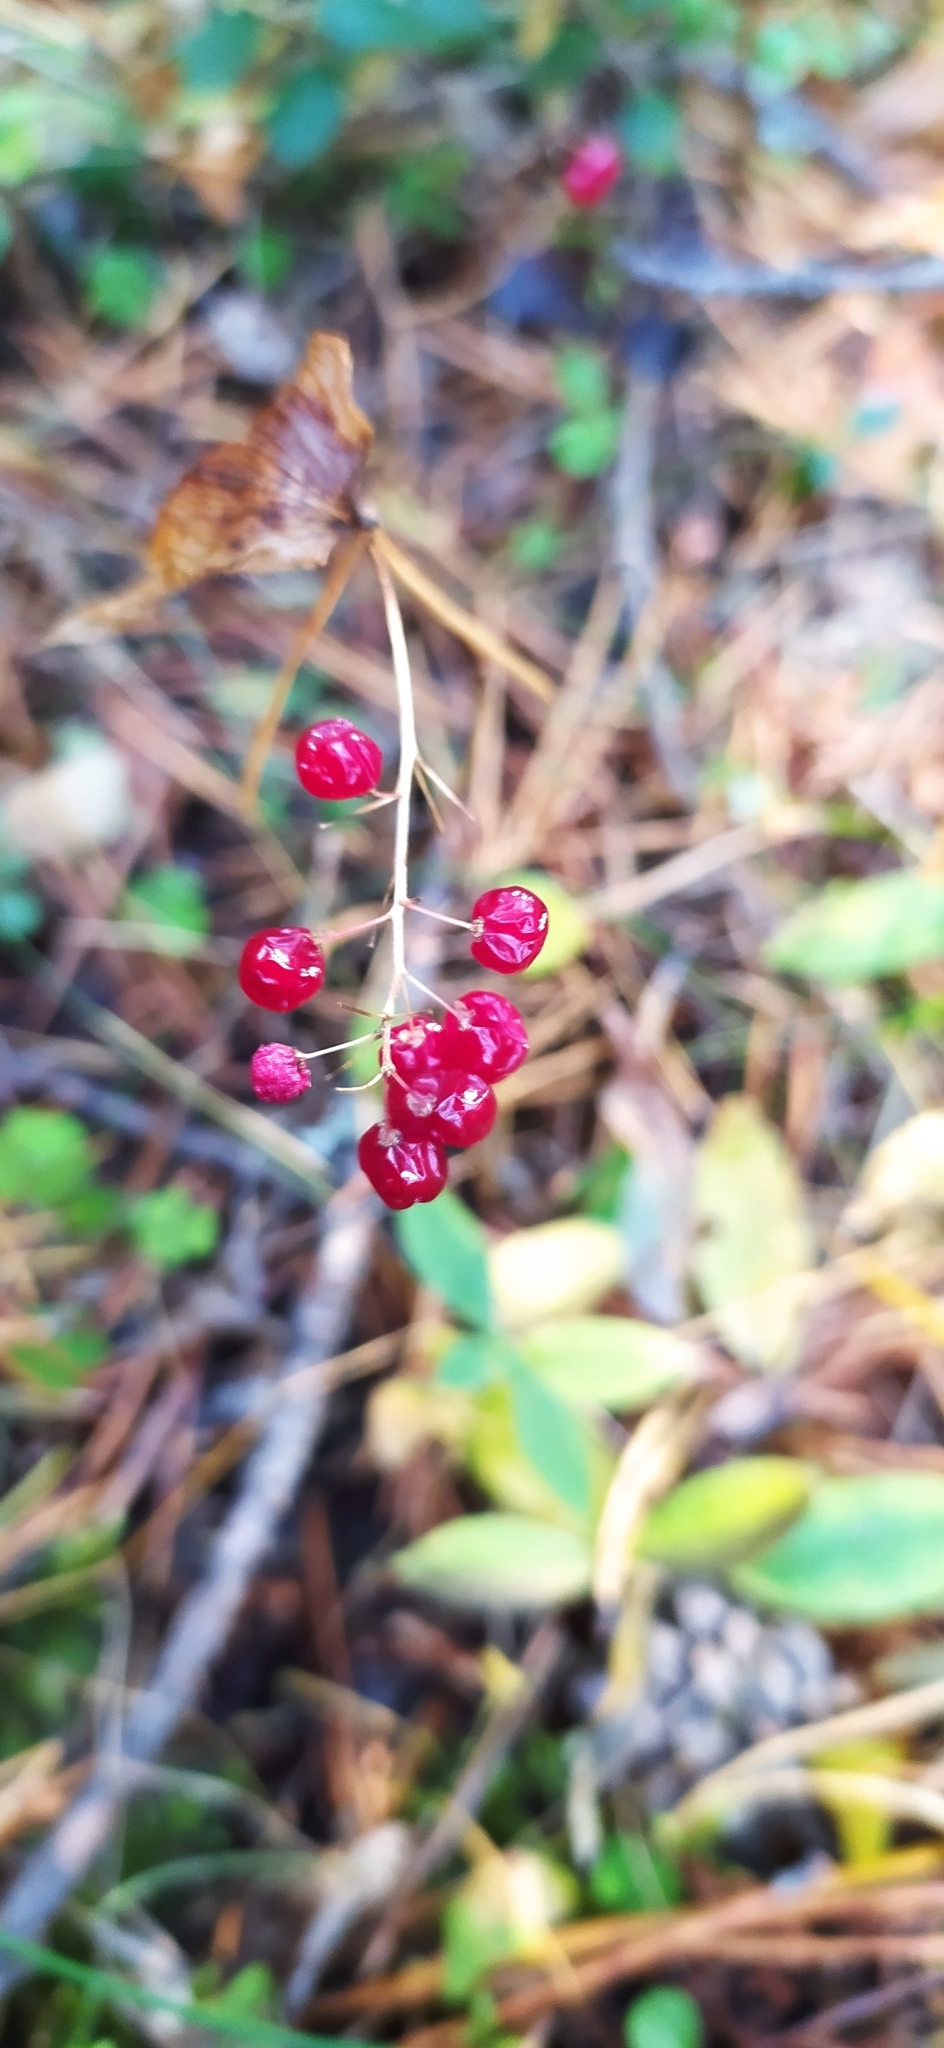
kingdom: Plantae
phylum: Tracheophyta
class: Liliopsida
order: Asparagales
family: Asparagaceae
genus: Maianthemum
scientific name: Maianthemum bifolium
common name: May lily
